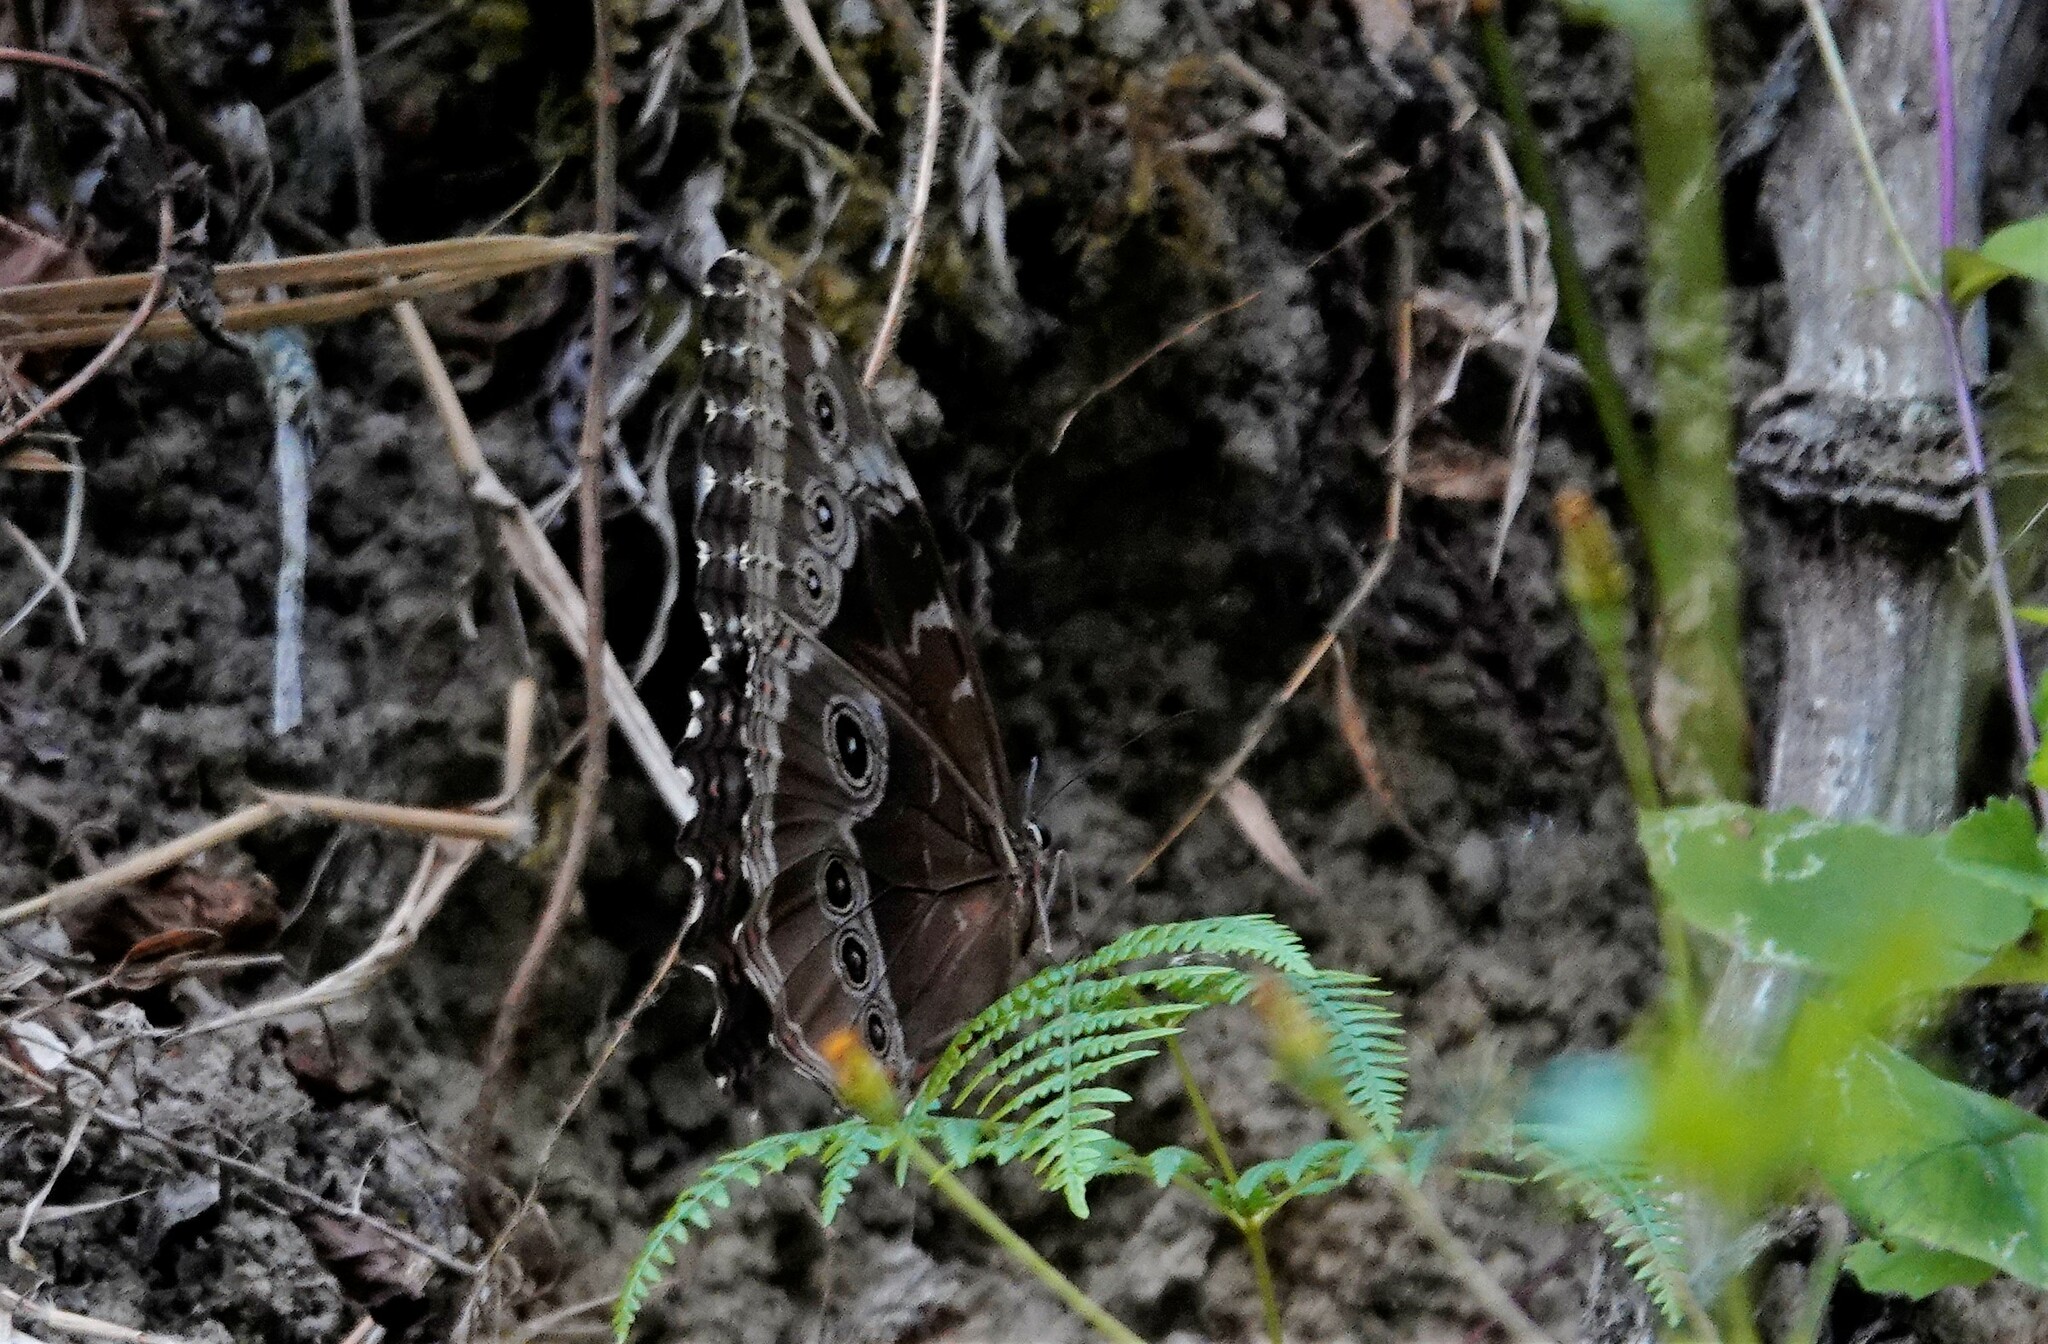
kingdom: Animalia
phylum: Arthropoda
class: Insecta
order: Lepidoptera
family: Nymphalidae
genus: Morpho
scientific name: Morpho helenor
